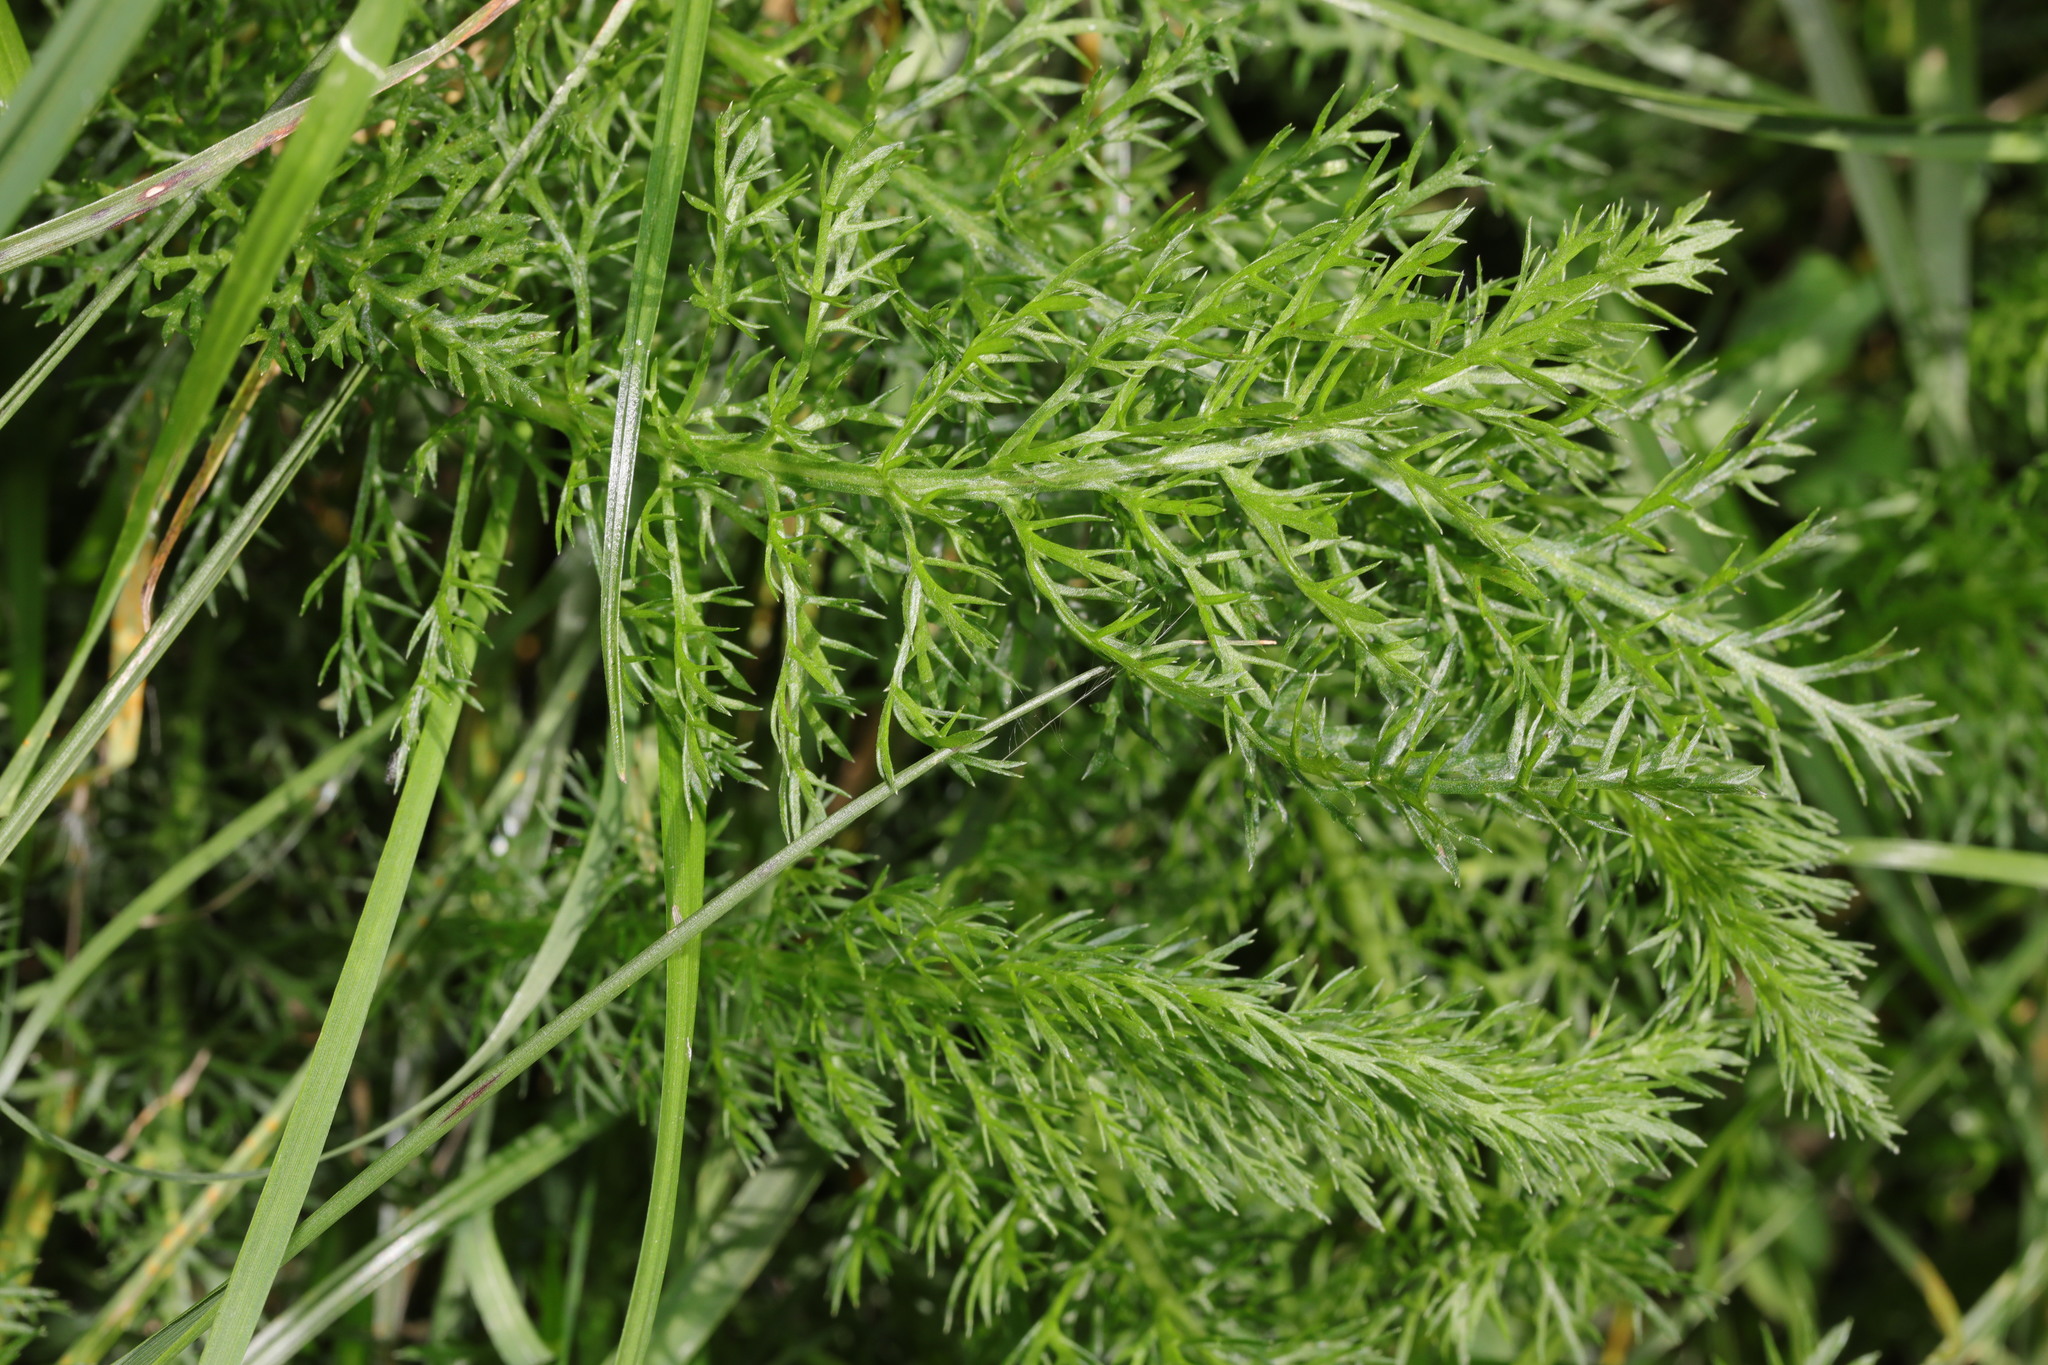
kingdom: Plantae
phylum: Tracheophyta
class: Magnoliopsida
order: Asterales
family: Asteraceae
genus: Achillea
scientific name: Achillea millefolium
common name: Yarrow
